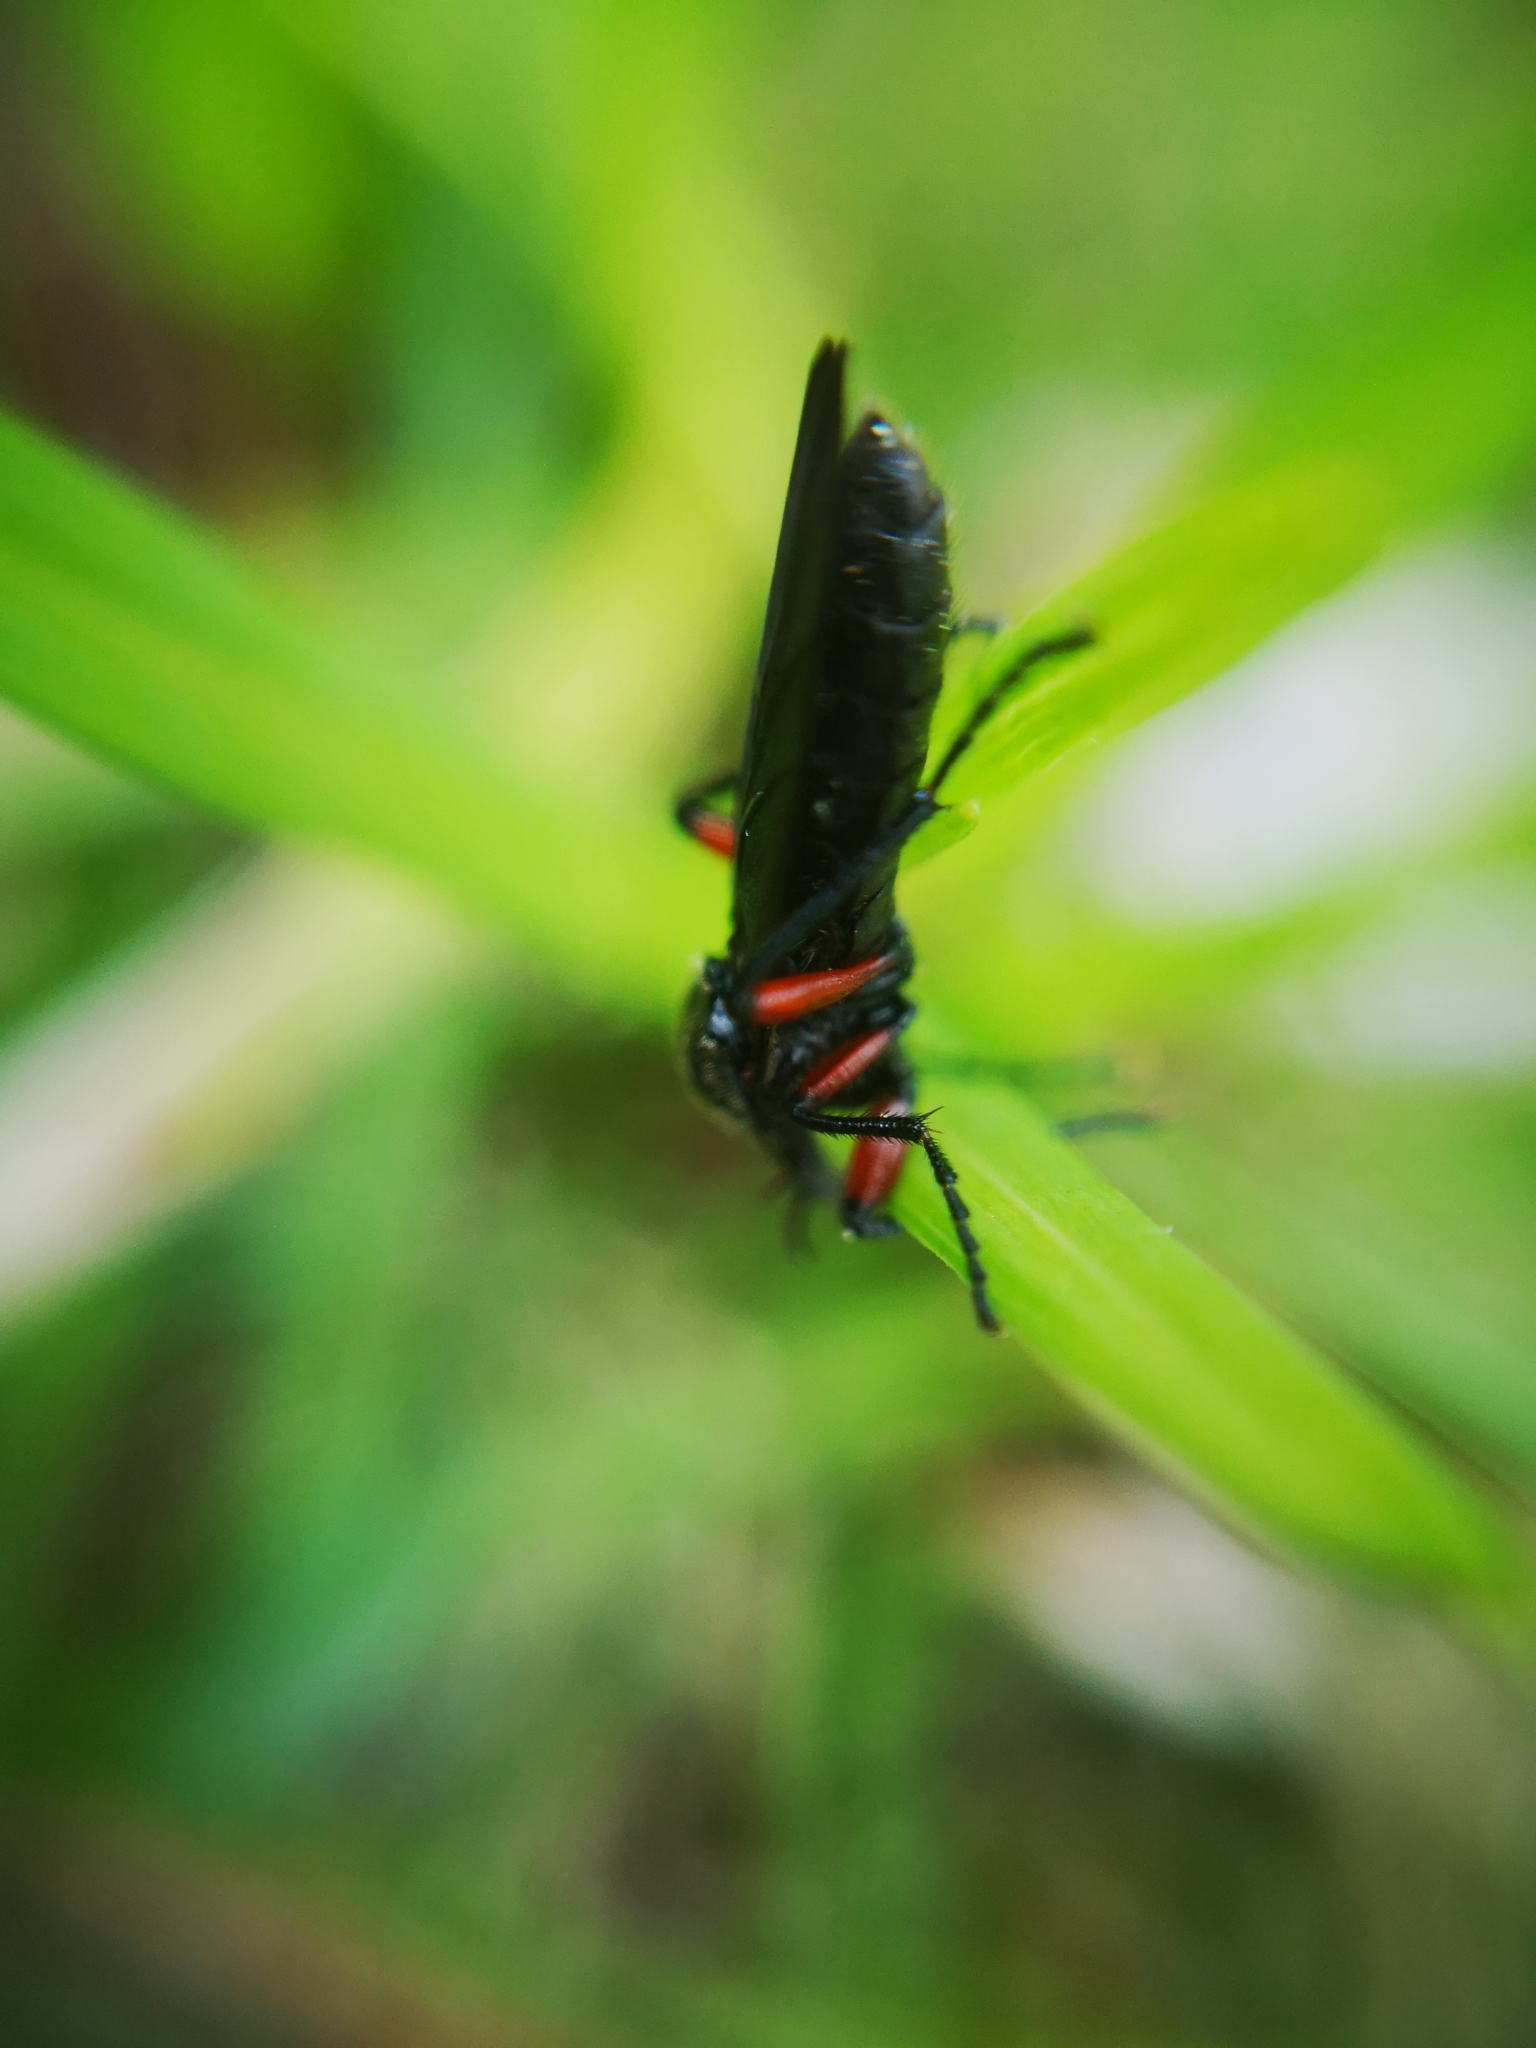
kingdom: Animalia
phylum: Arthropoda
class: Insecta
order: Diptera
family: Bibionidae
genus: Bibio
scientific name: Bibio femoratus
